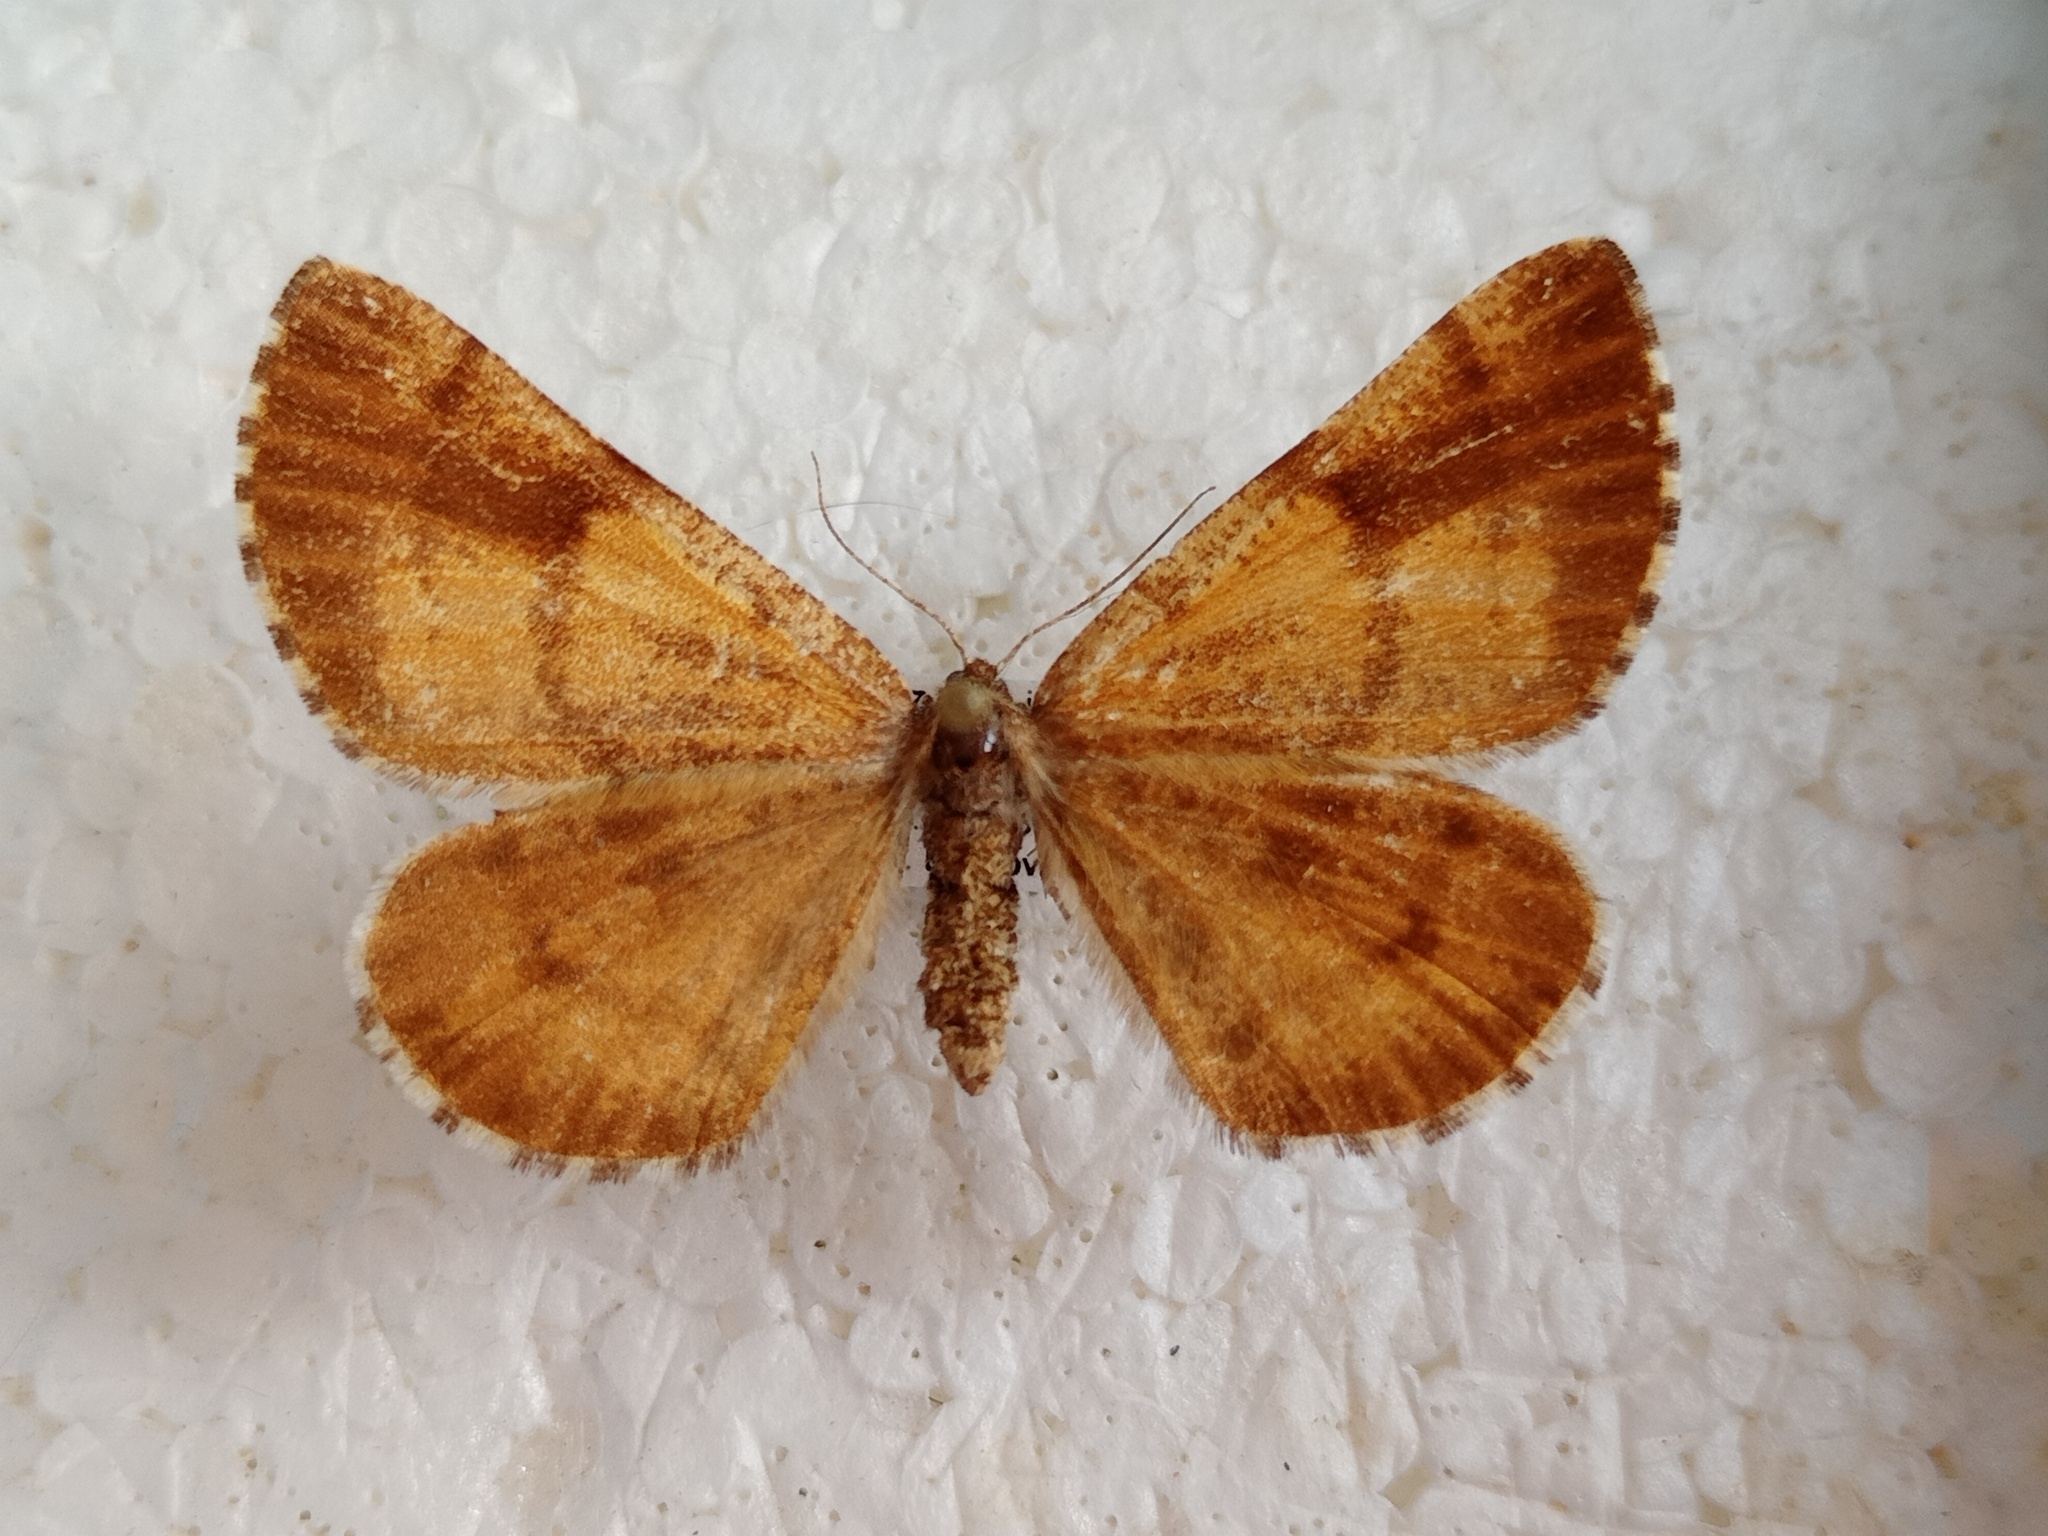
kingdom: Animalia
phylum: Arthropoda
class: Insecta
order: Lepidoptera
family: Geometridae
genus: Bupalus
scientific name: Bupalus piniaria
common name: Bordered white
